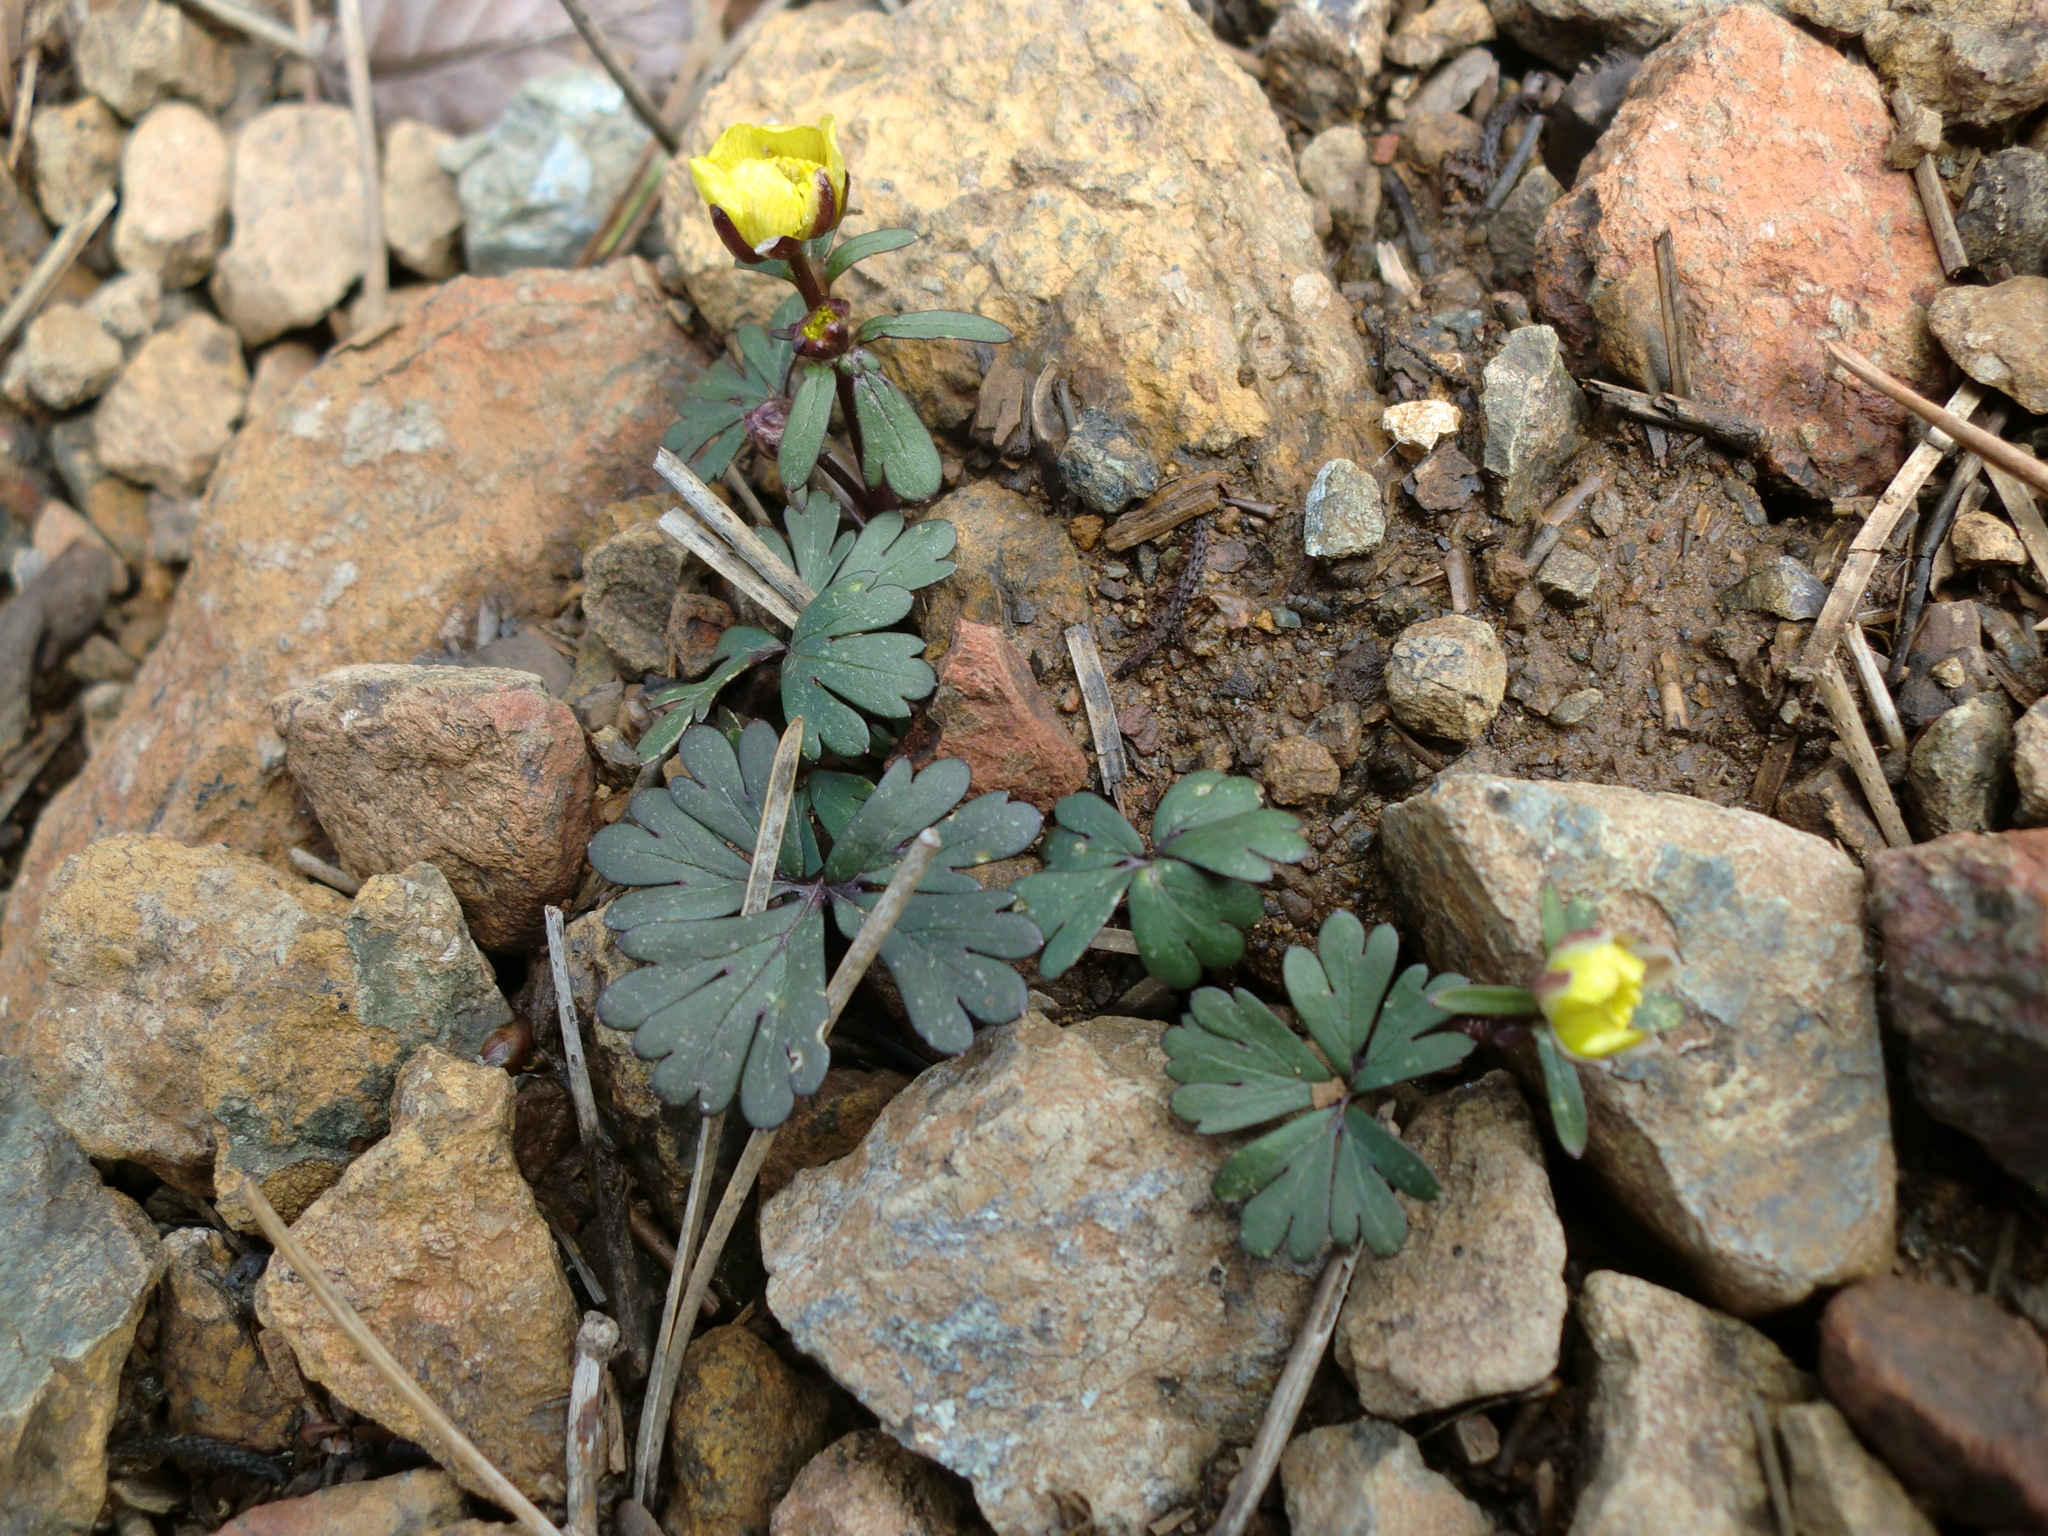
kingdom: Plantae
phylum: Tracheophyta
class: Magnoliopsida
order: Ranunculales
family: Ranunculaceae
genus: Ranunculus
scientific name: Ranunculus cyprius
